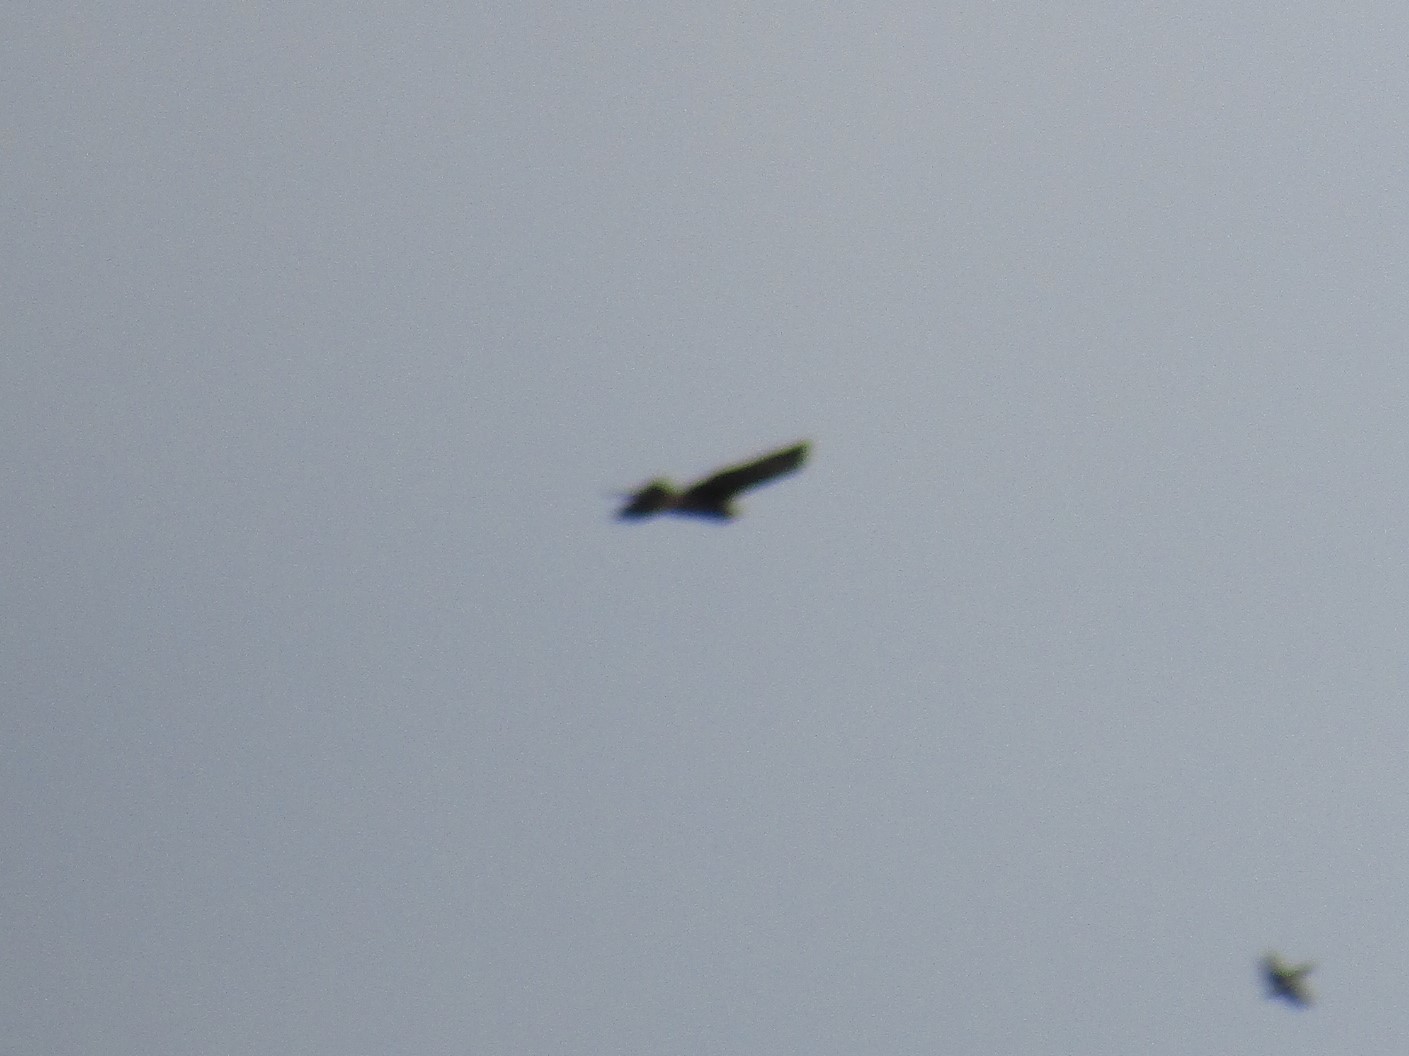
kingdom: Animalia
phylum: Chordata
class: Aves
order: Accipitriformes
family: Accipitridae
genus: Parabuteo
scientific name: Parabuteo unicinctus
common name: Harris's hawk
